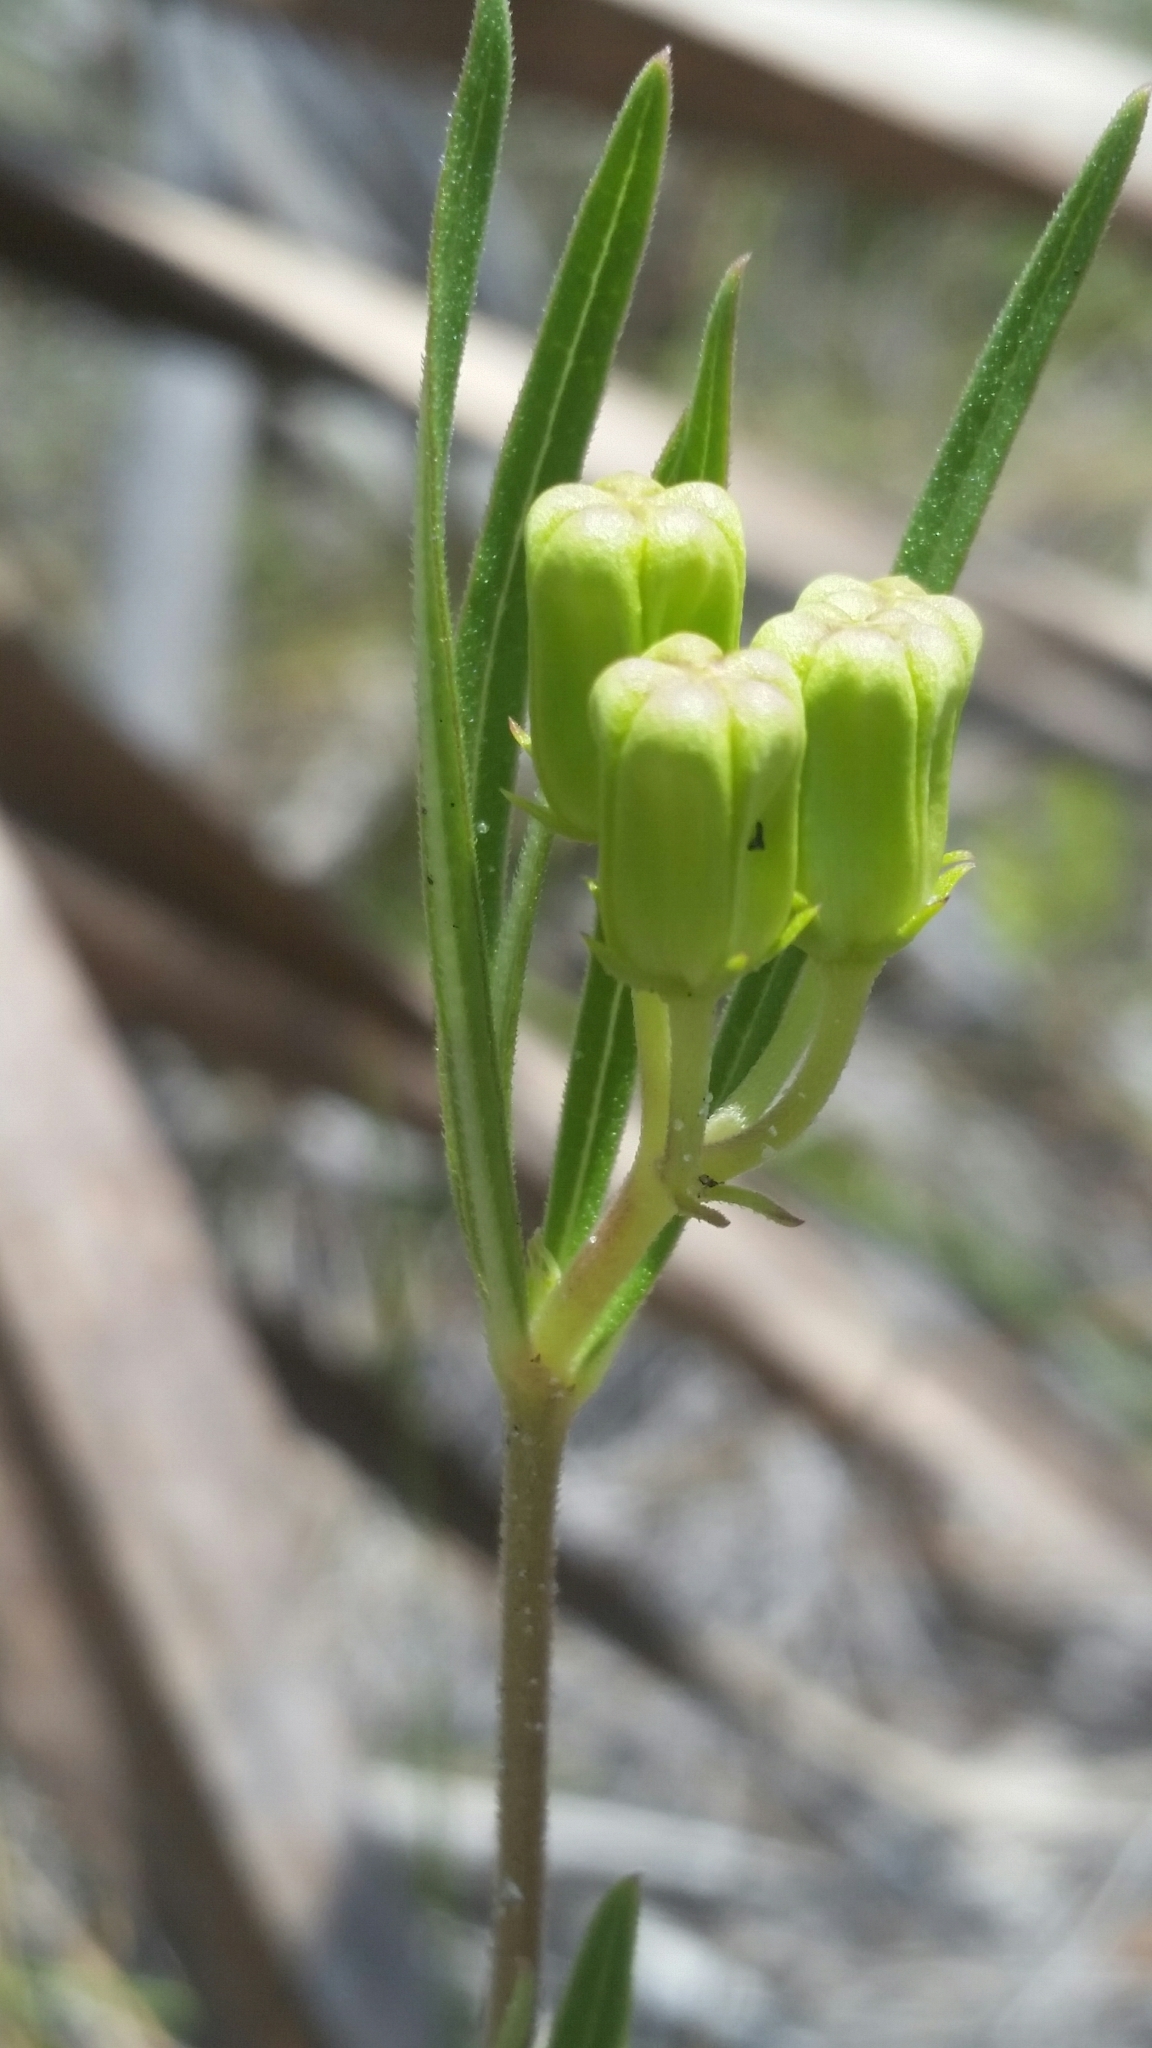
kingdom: Plantae
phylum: Tracheophyta
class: Magnoliopsida
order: Gentianales
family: Apocynaceae
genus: Asclepias
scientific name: Asclepias pedicellata
